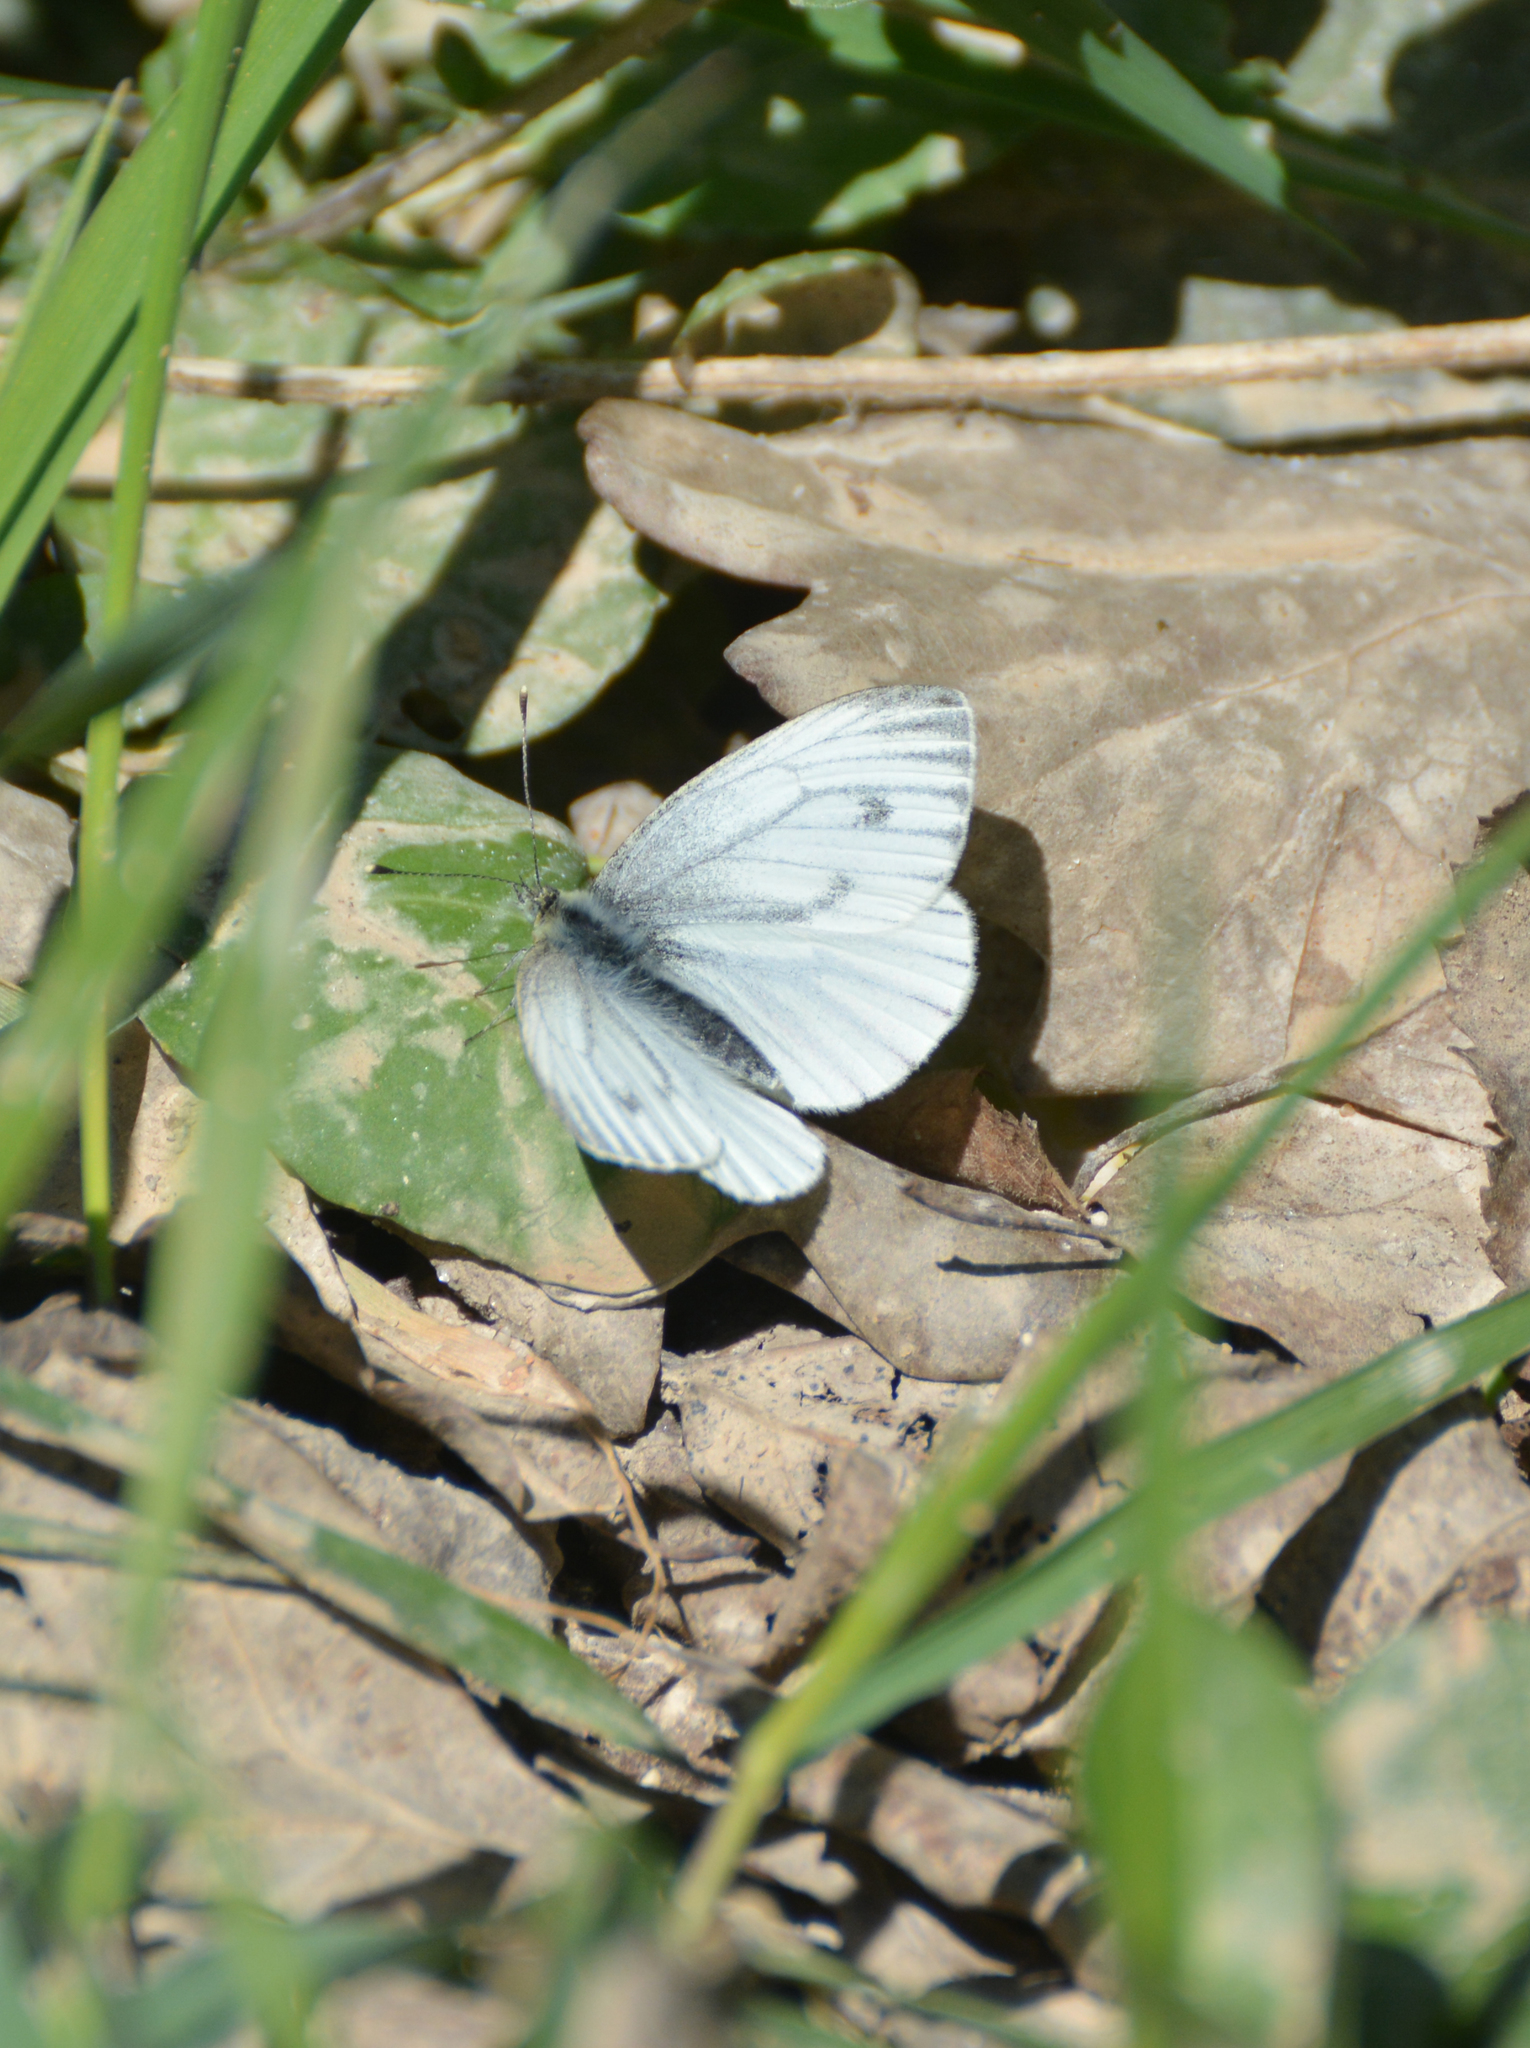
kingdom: Animalia
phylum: Arthropoda
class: Insecta
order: Lepidoptera
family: Pieridae
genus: Pieris
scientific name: Pieris napi
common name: Green-veined white
